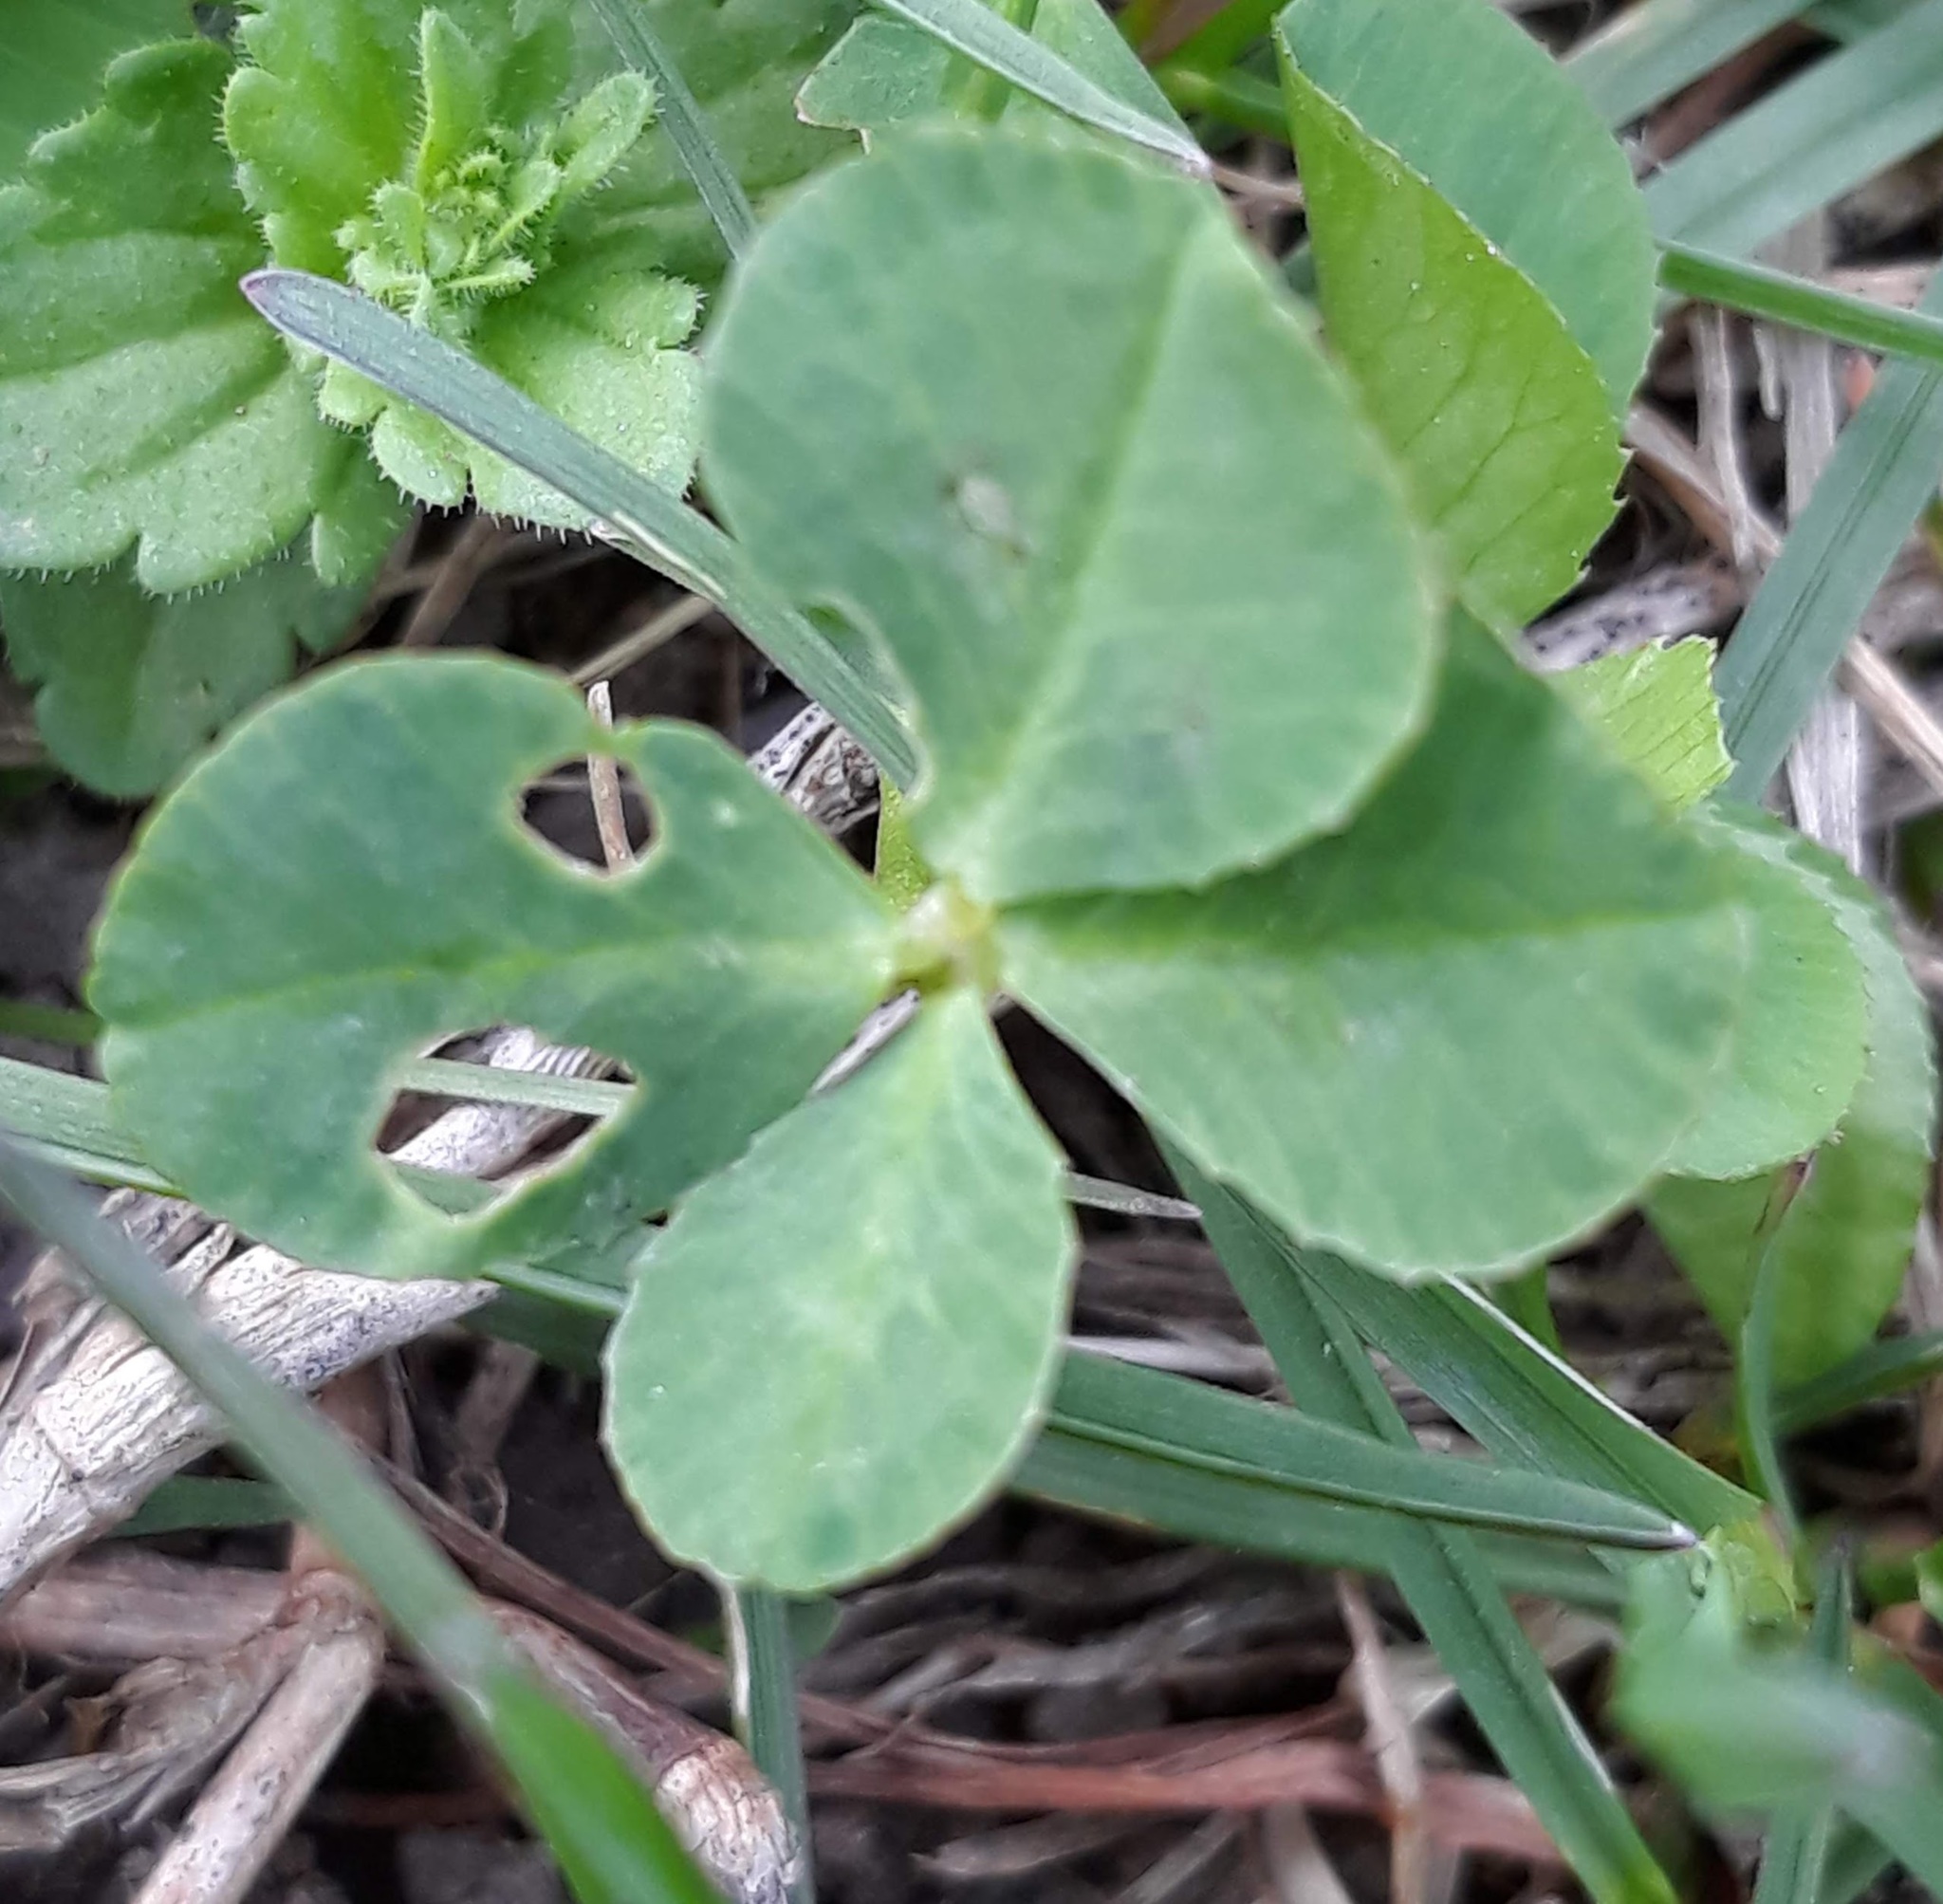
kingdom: Plantae
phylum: Tracheophyta
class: Magnoliopsida
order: Fabales
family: Fabaceae
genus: Trifolium
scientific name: Trifolium repens
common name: White clover
